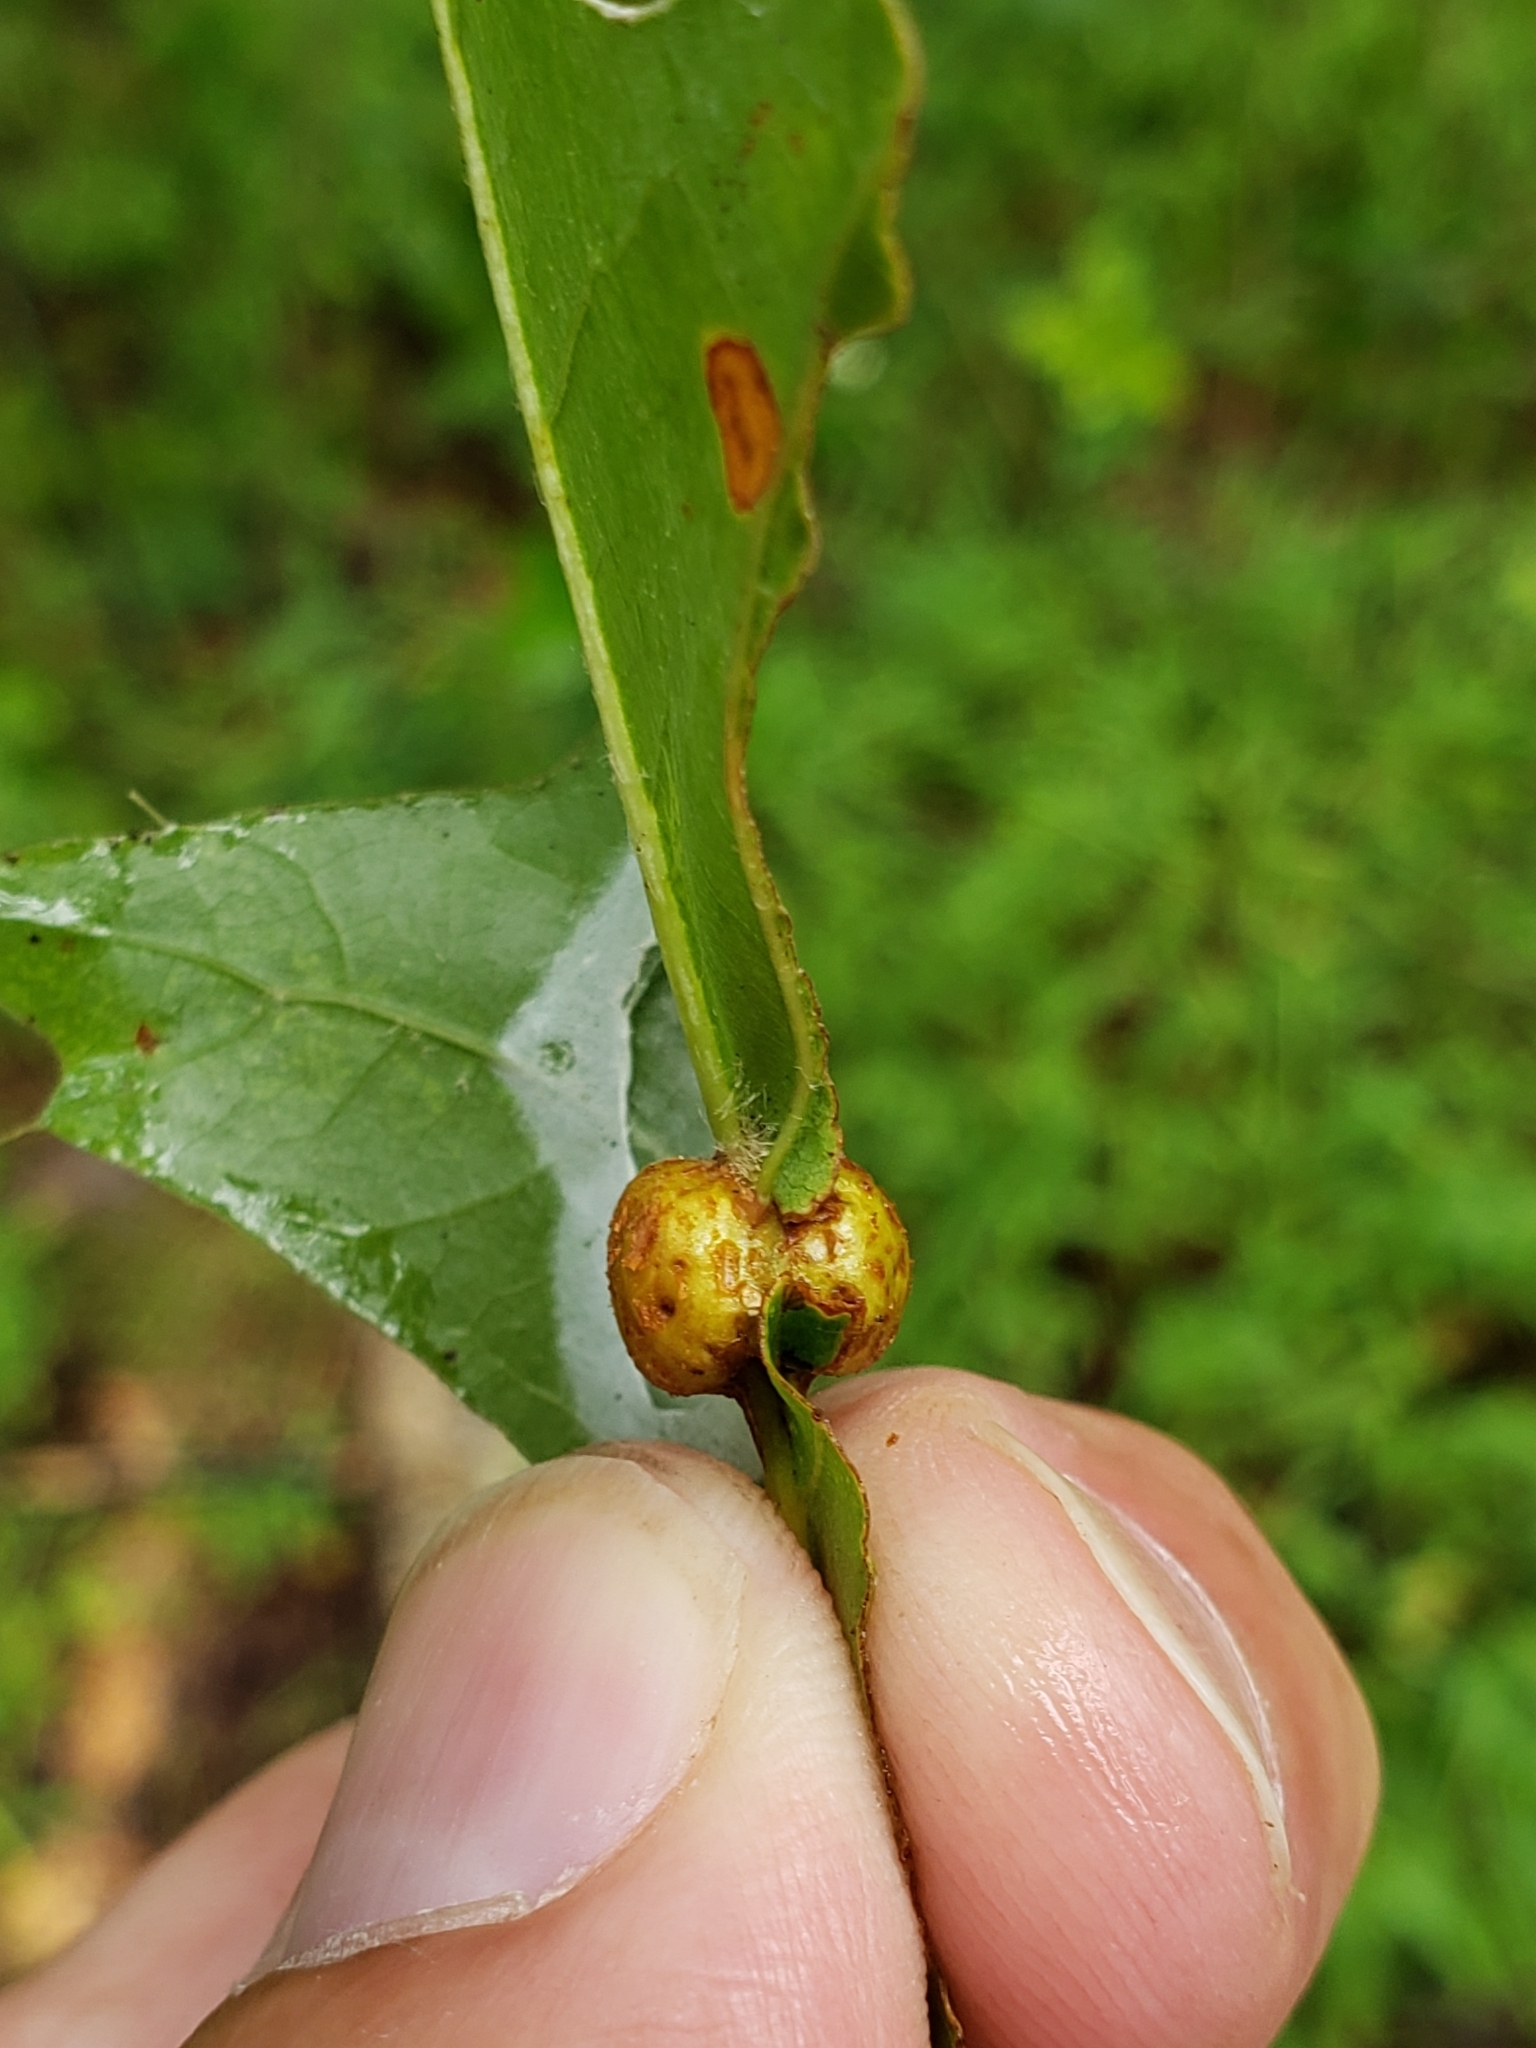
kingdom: Animalia
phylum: Arthropoda
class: Insecta
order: Hymenoptera
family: Cynipidae
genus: Kokkocynips
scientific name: Kokkocynips decidua
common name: Oak wheat gall
